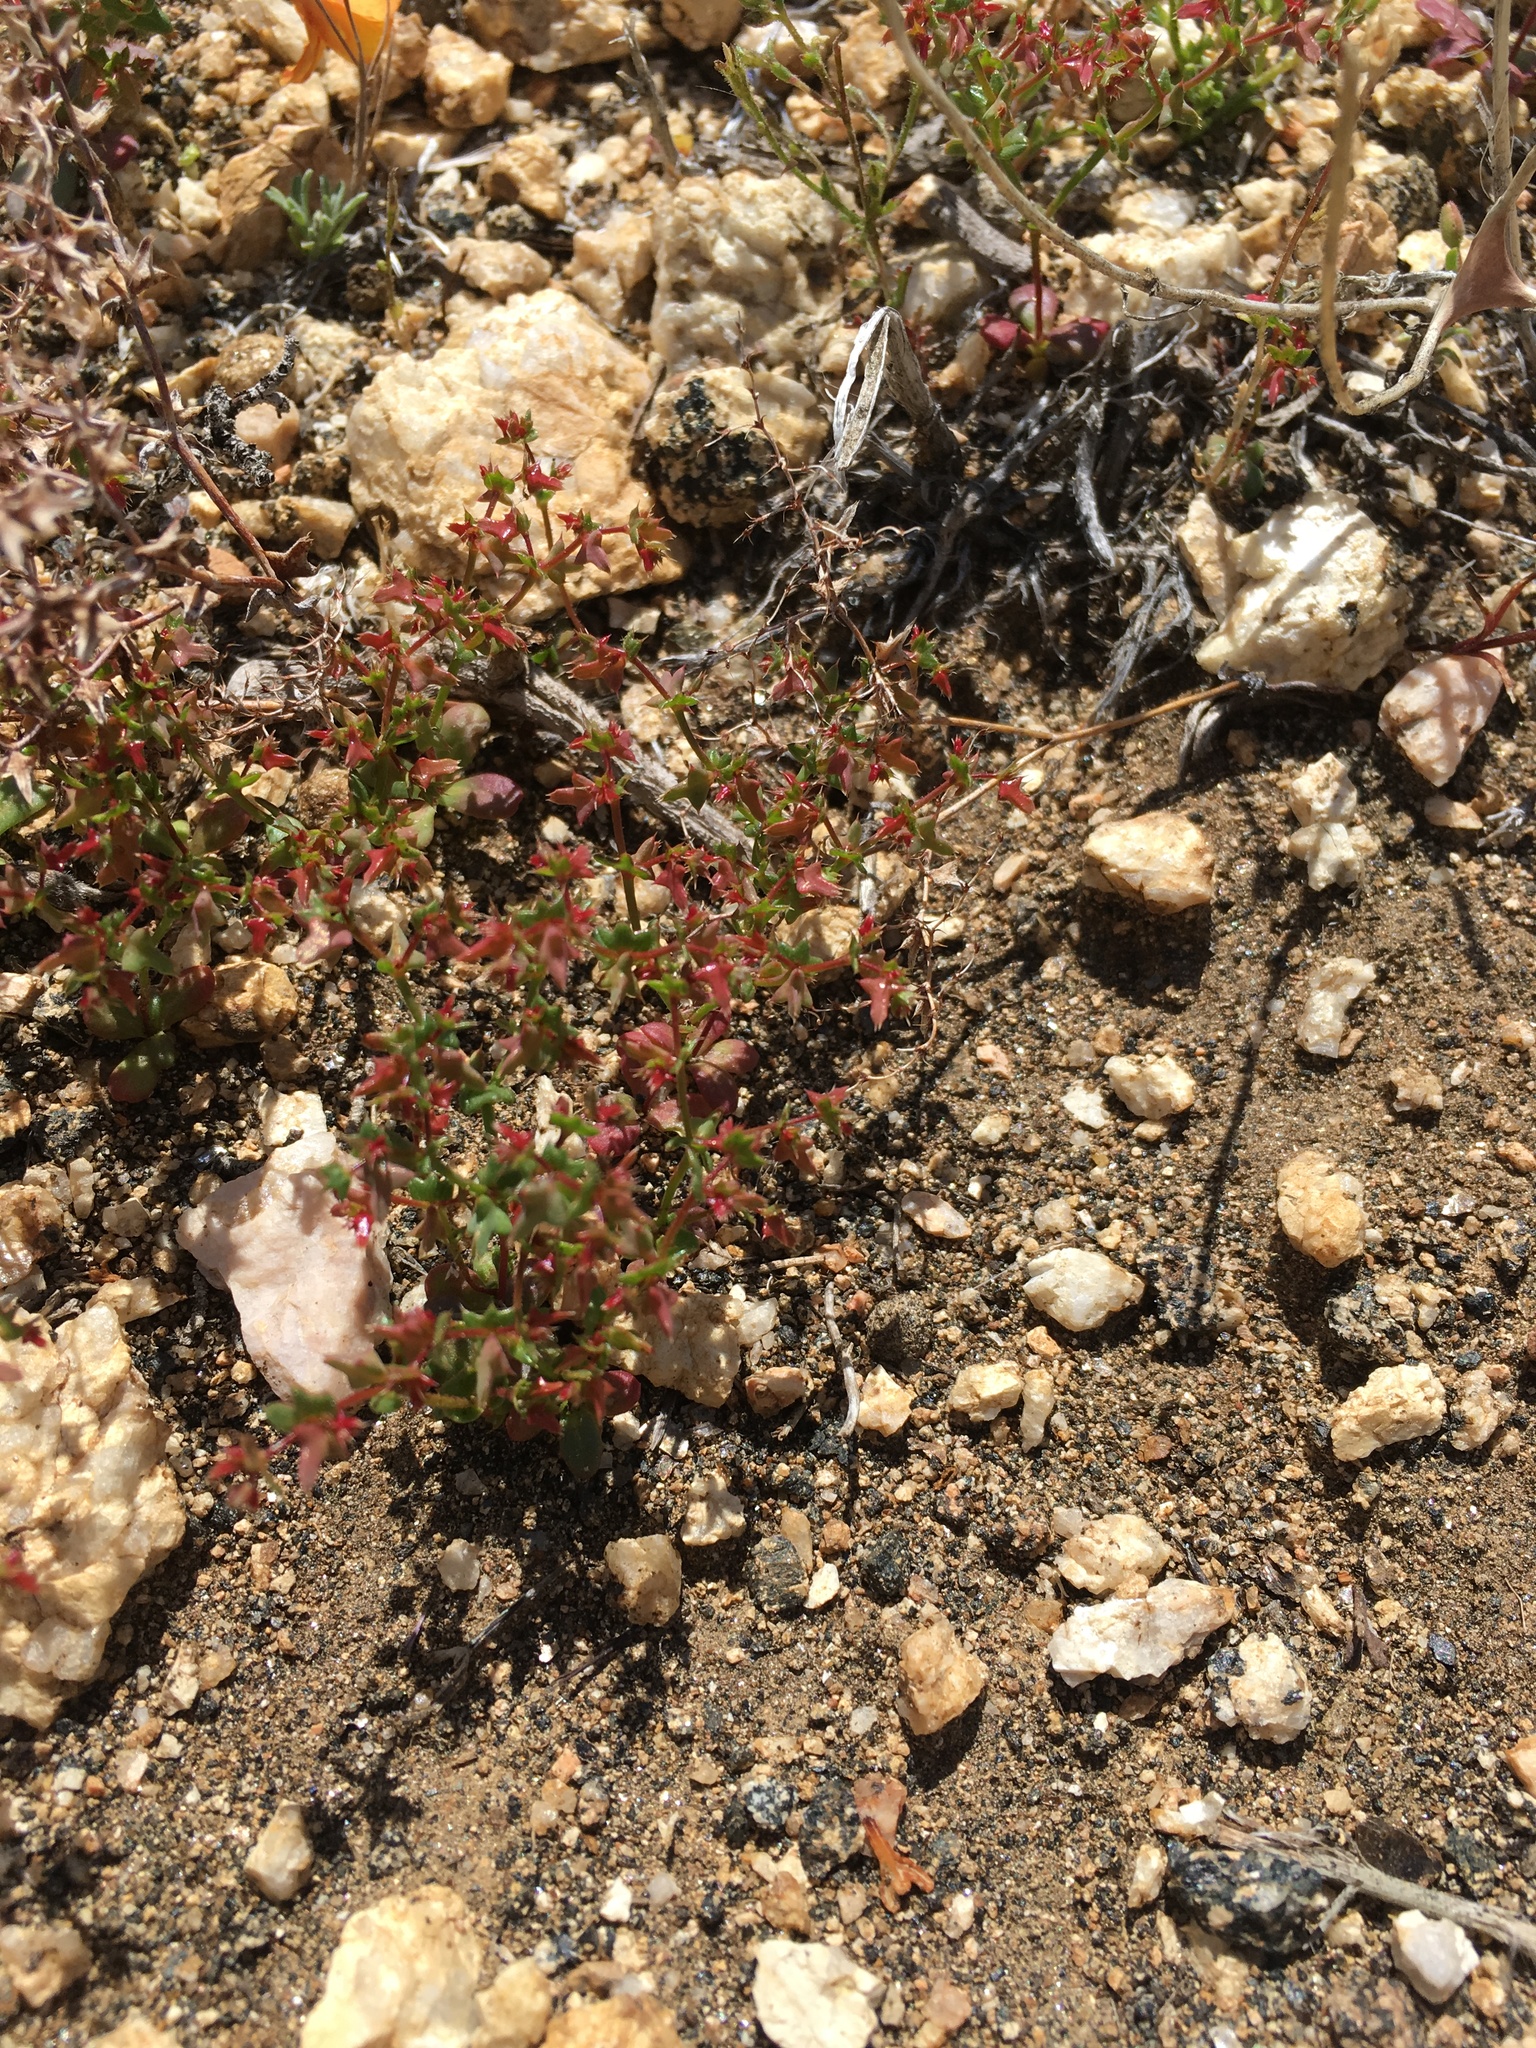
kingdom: Plantae
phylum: Tracheophyta
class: Magnoliopsida
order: Caryophyllales
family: Polygonaceae
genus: Centrostegia
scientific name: Centrostegia thurberi
